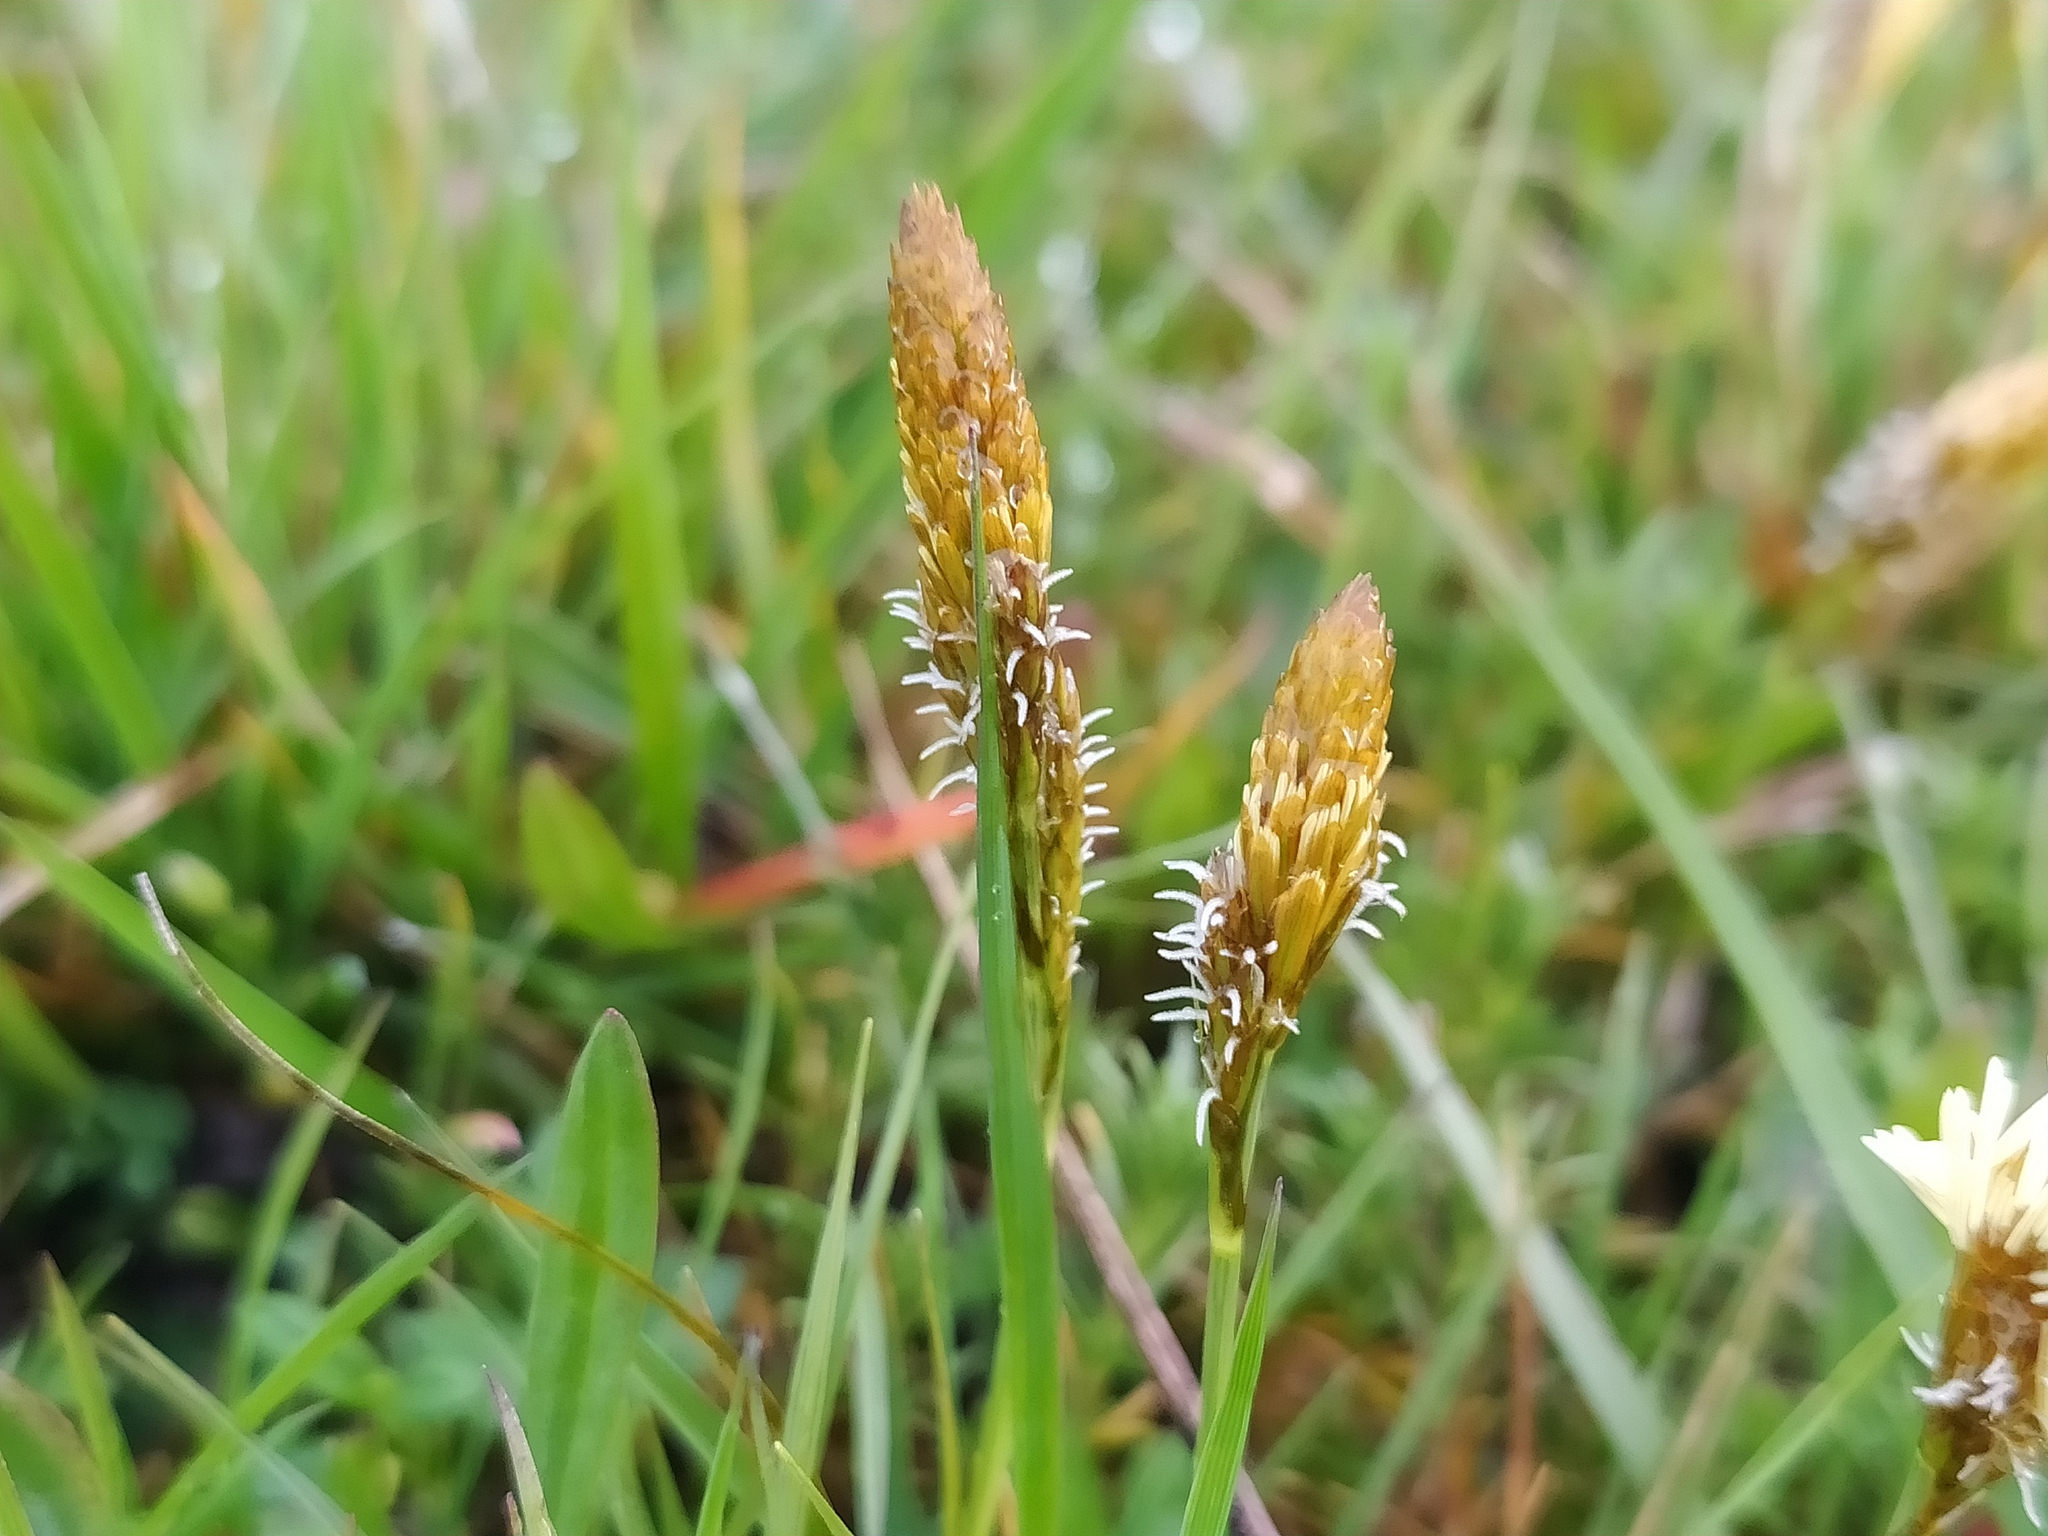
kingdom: Plantae
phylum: Tracheophyta
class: Liliopsida
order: Poales
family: Cyperaceae
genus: Carex
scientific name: Carex caryophyllea
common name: Spring sedge
